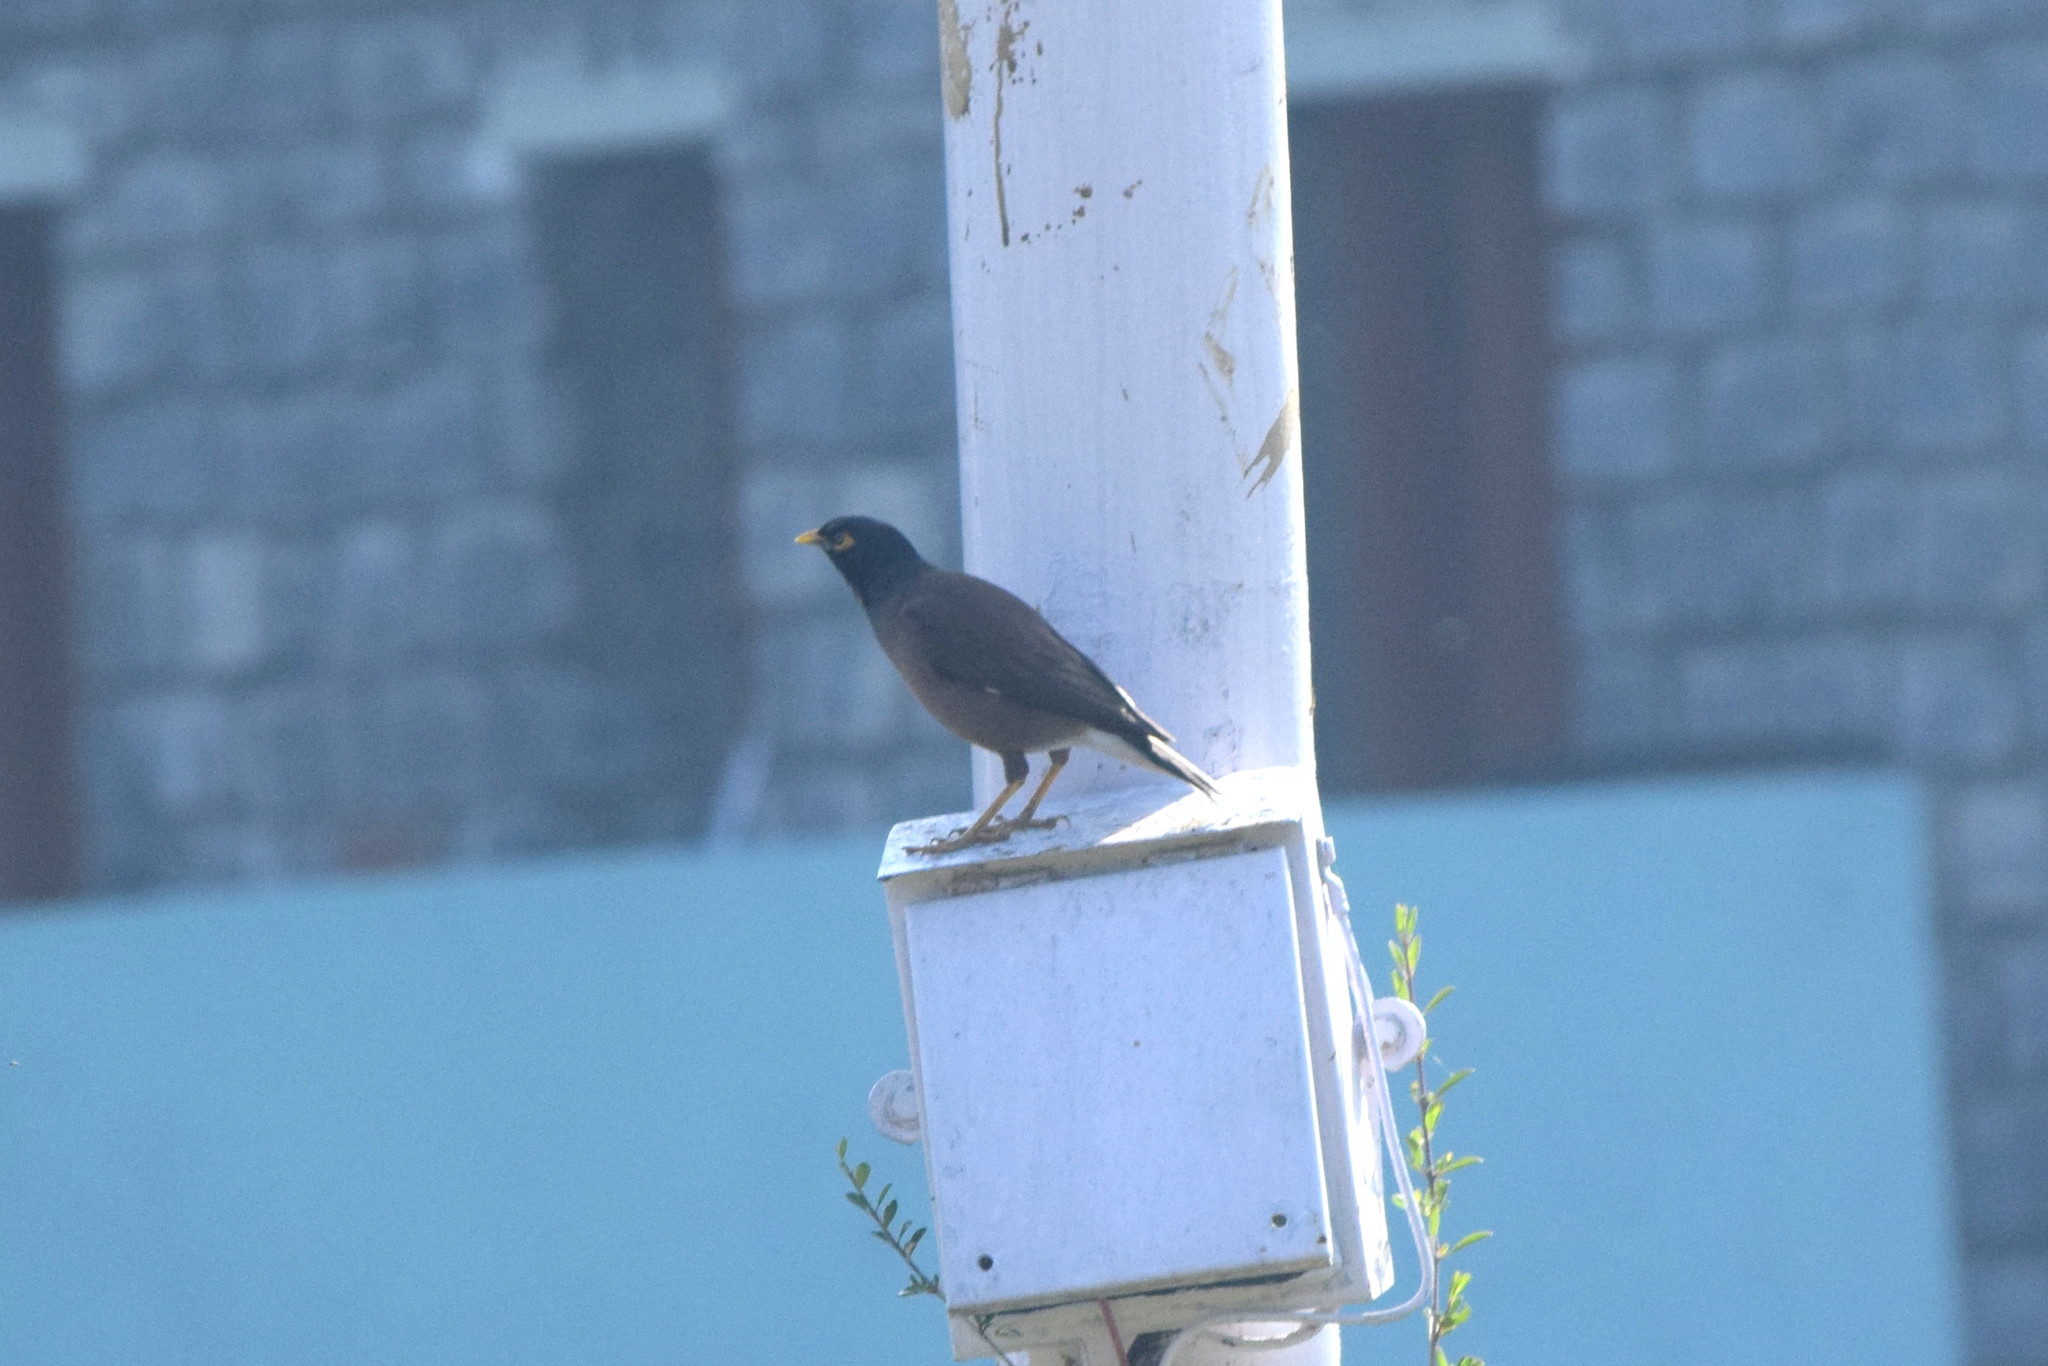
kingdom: Animalia
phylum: Chordata
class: Aves
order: Passeriformes
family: Sturnidae
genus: Acridotheres
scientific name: Acridotheres tristis
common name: Common myna
